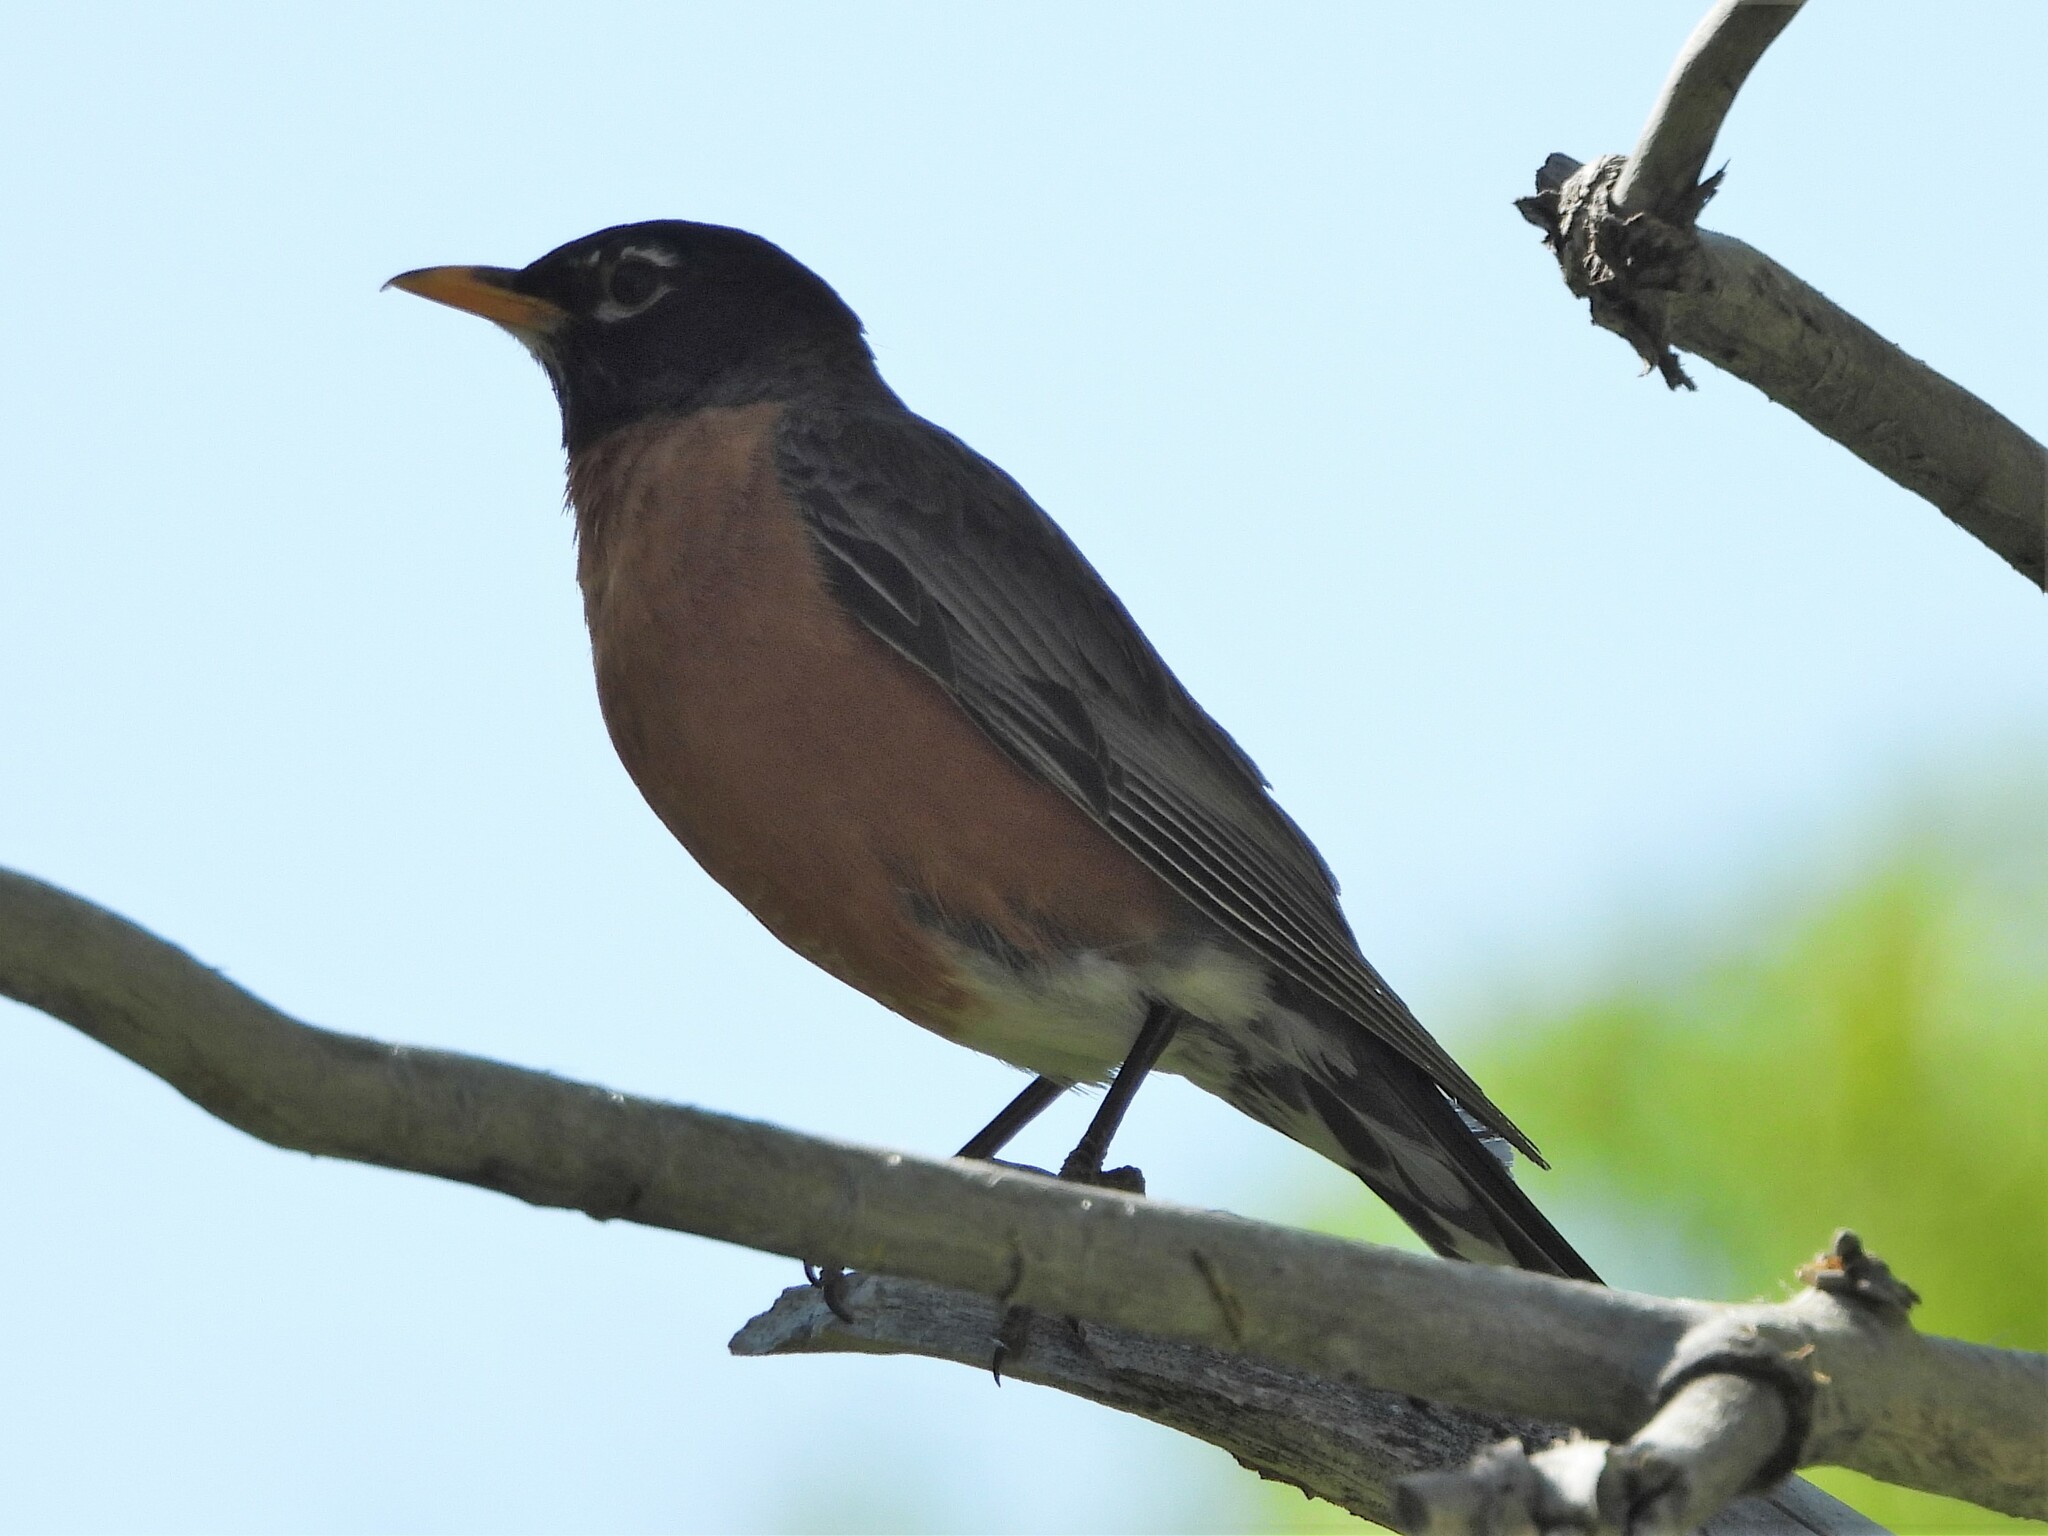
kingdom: Animalia
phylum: Chordata
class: Aves
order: Passeriformes
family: Turdidae
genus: Turdus
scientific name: Turdus migratorius
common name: American robin
